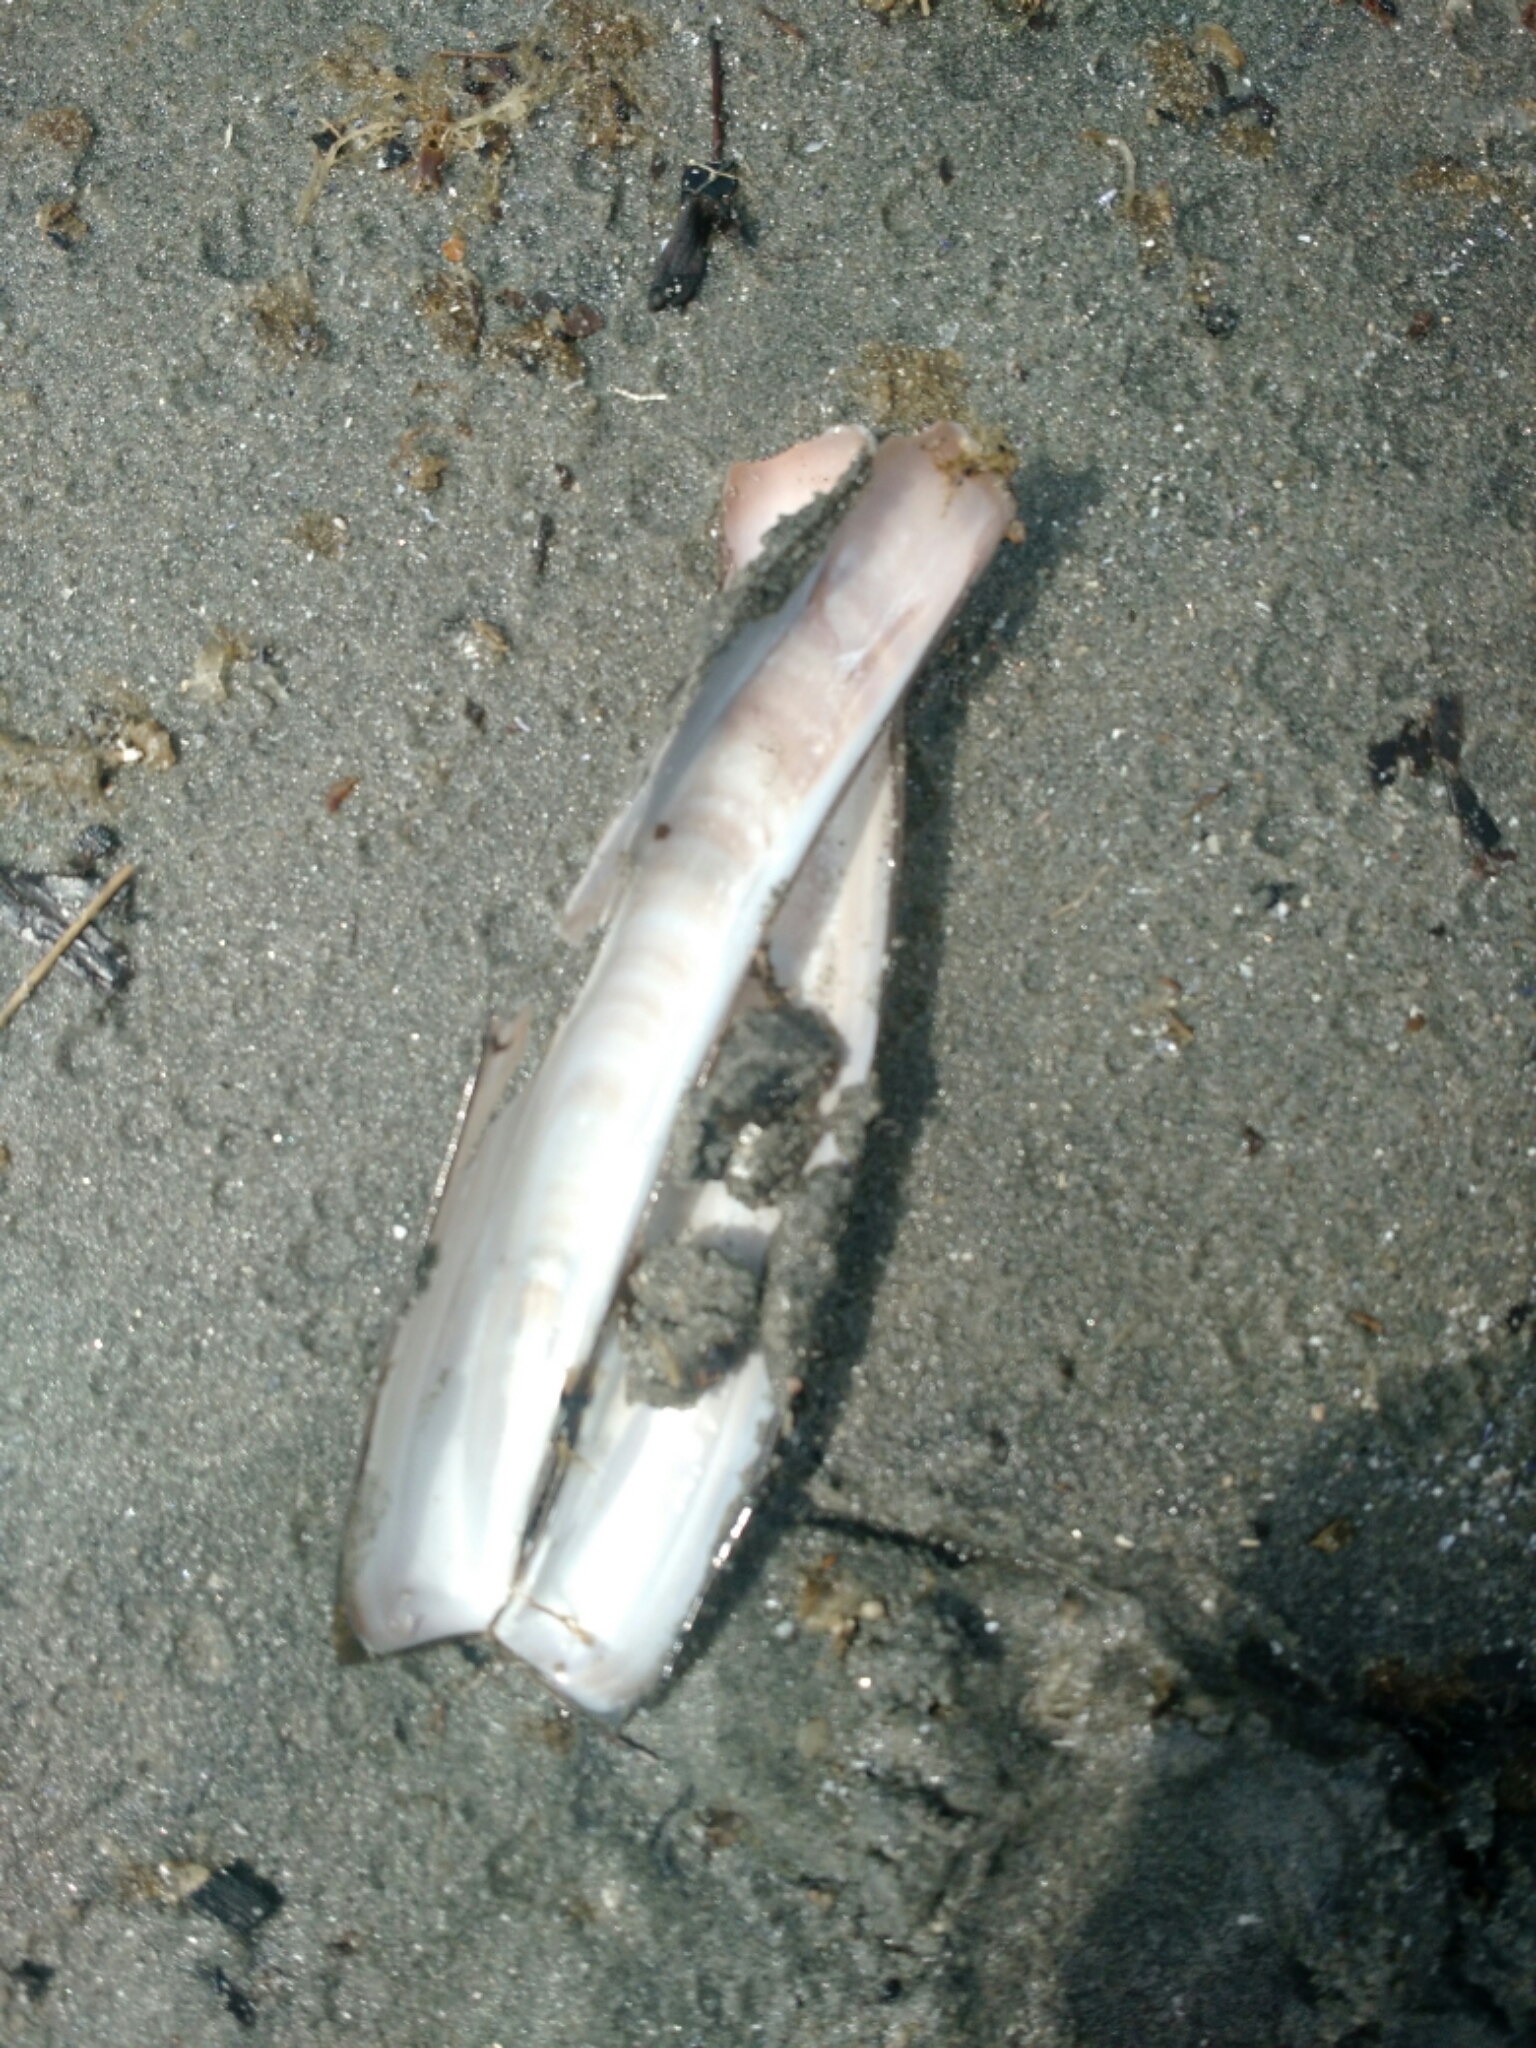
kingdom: Animalia
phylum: Mollusca
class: Bivalvia
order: Adapedonta
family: Pharidae
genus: Ensis
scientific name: Ensis leei
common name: American jack knife clam
